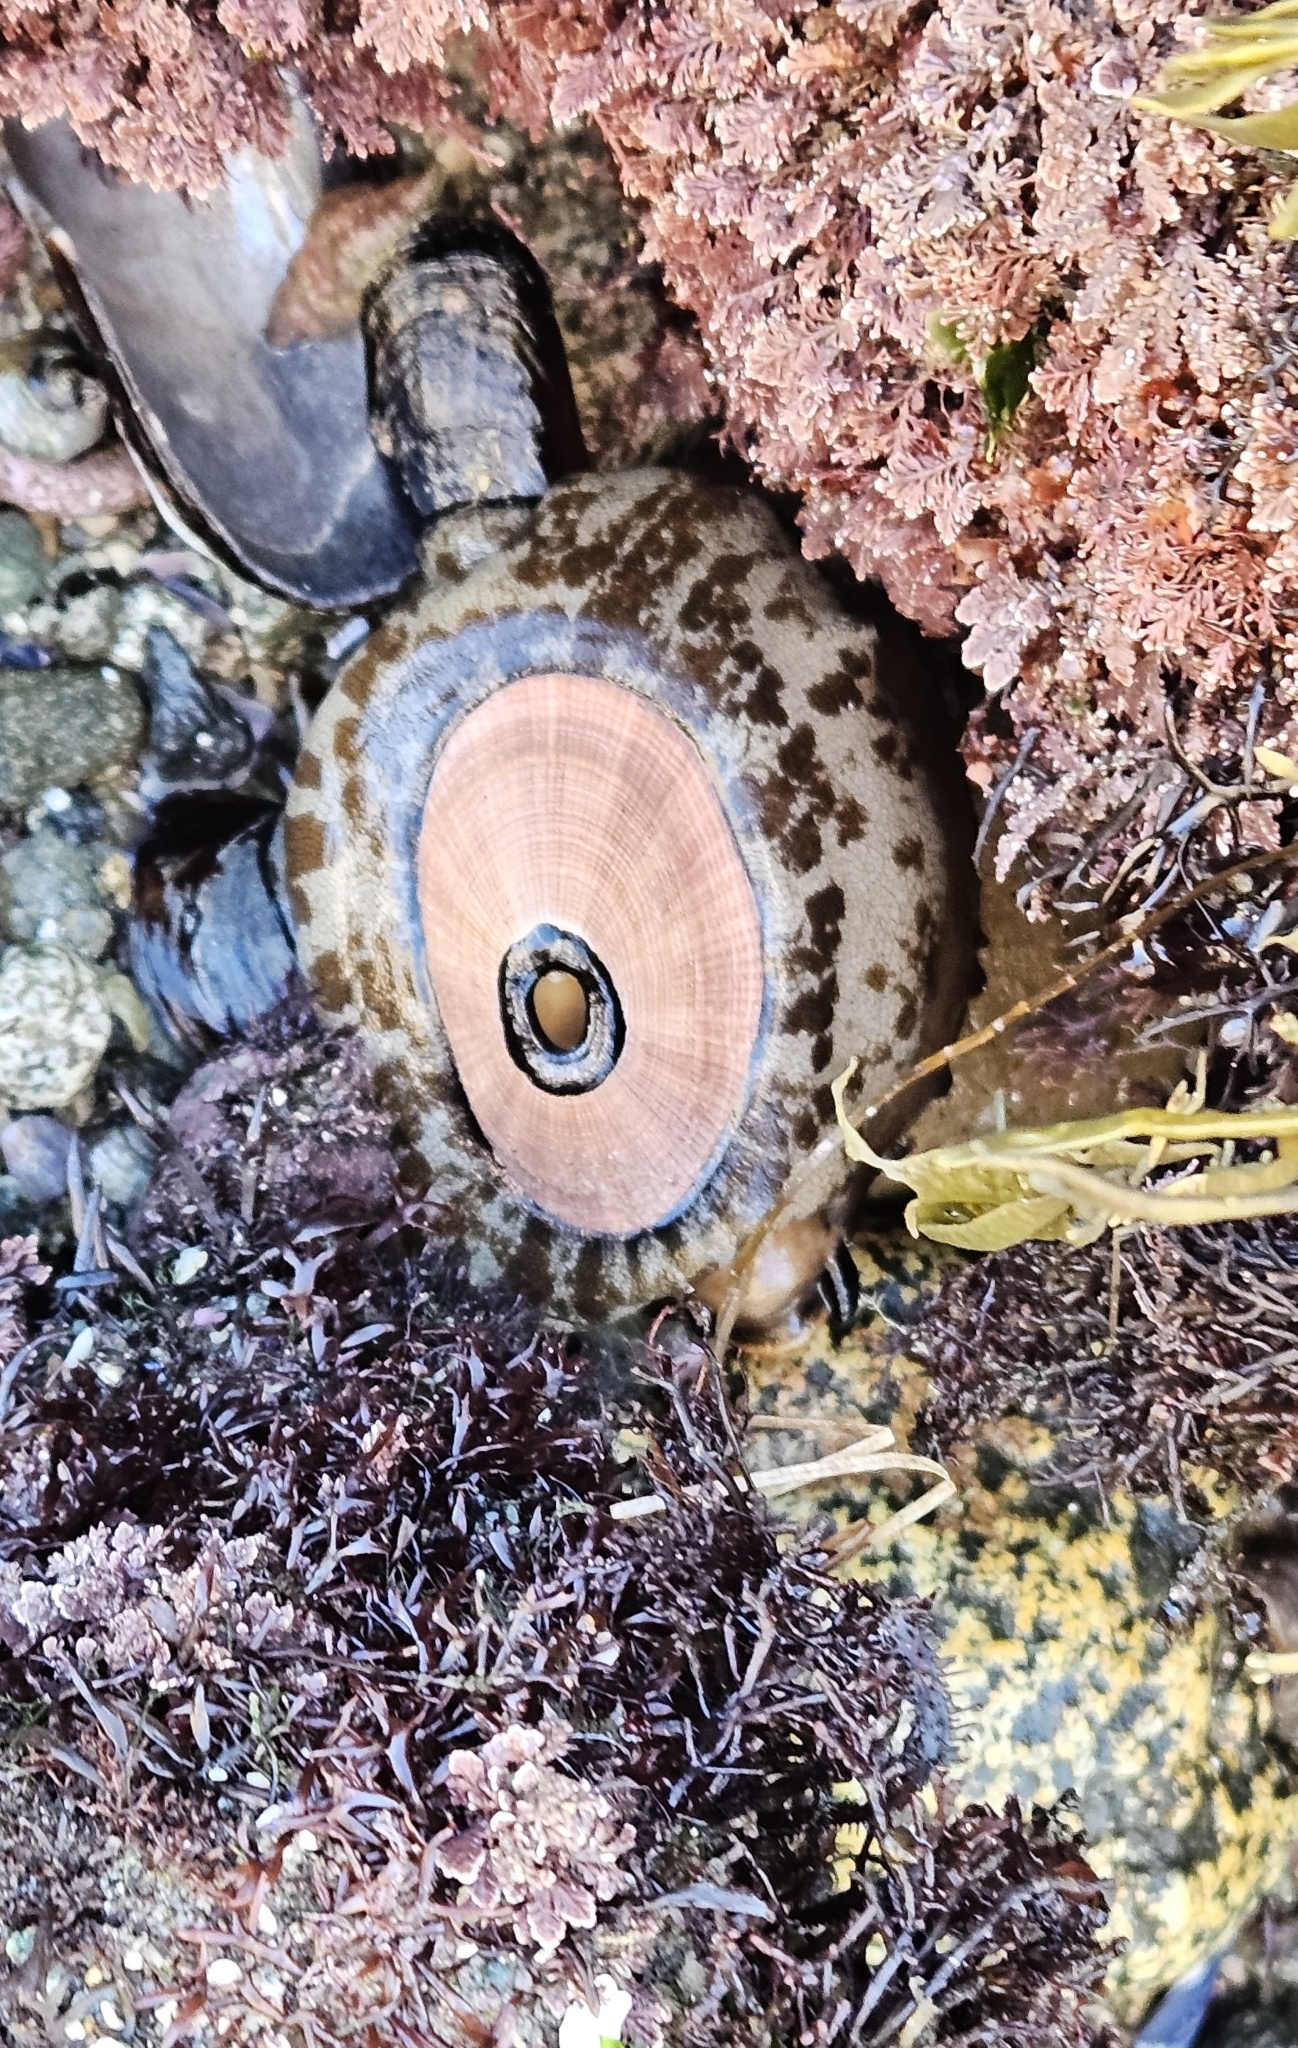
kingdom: Animalia
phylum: Mollusca
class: Gastropoda
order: Lepetellida
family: Fissurellidae
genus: Megathura
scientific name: Megathura crenulata
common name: Giant keyhole limpet
